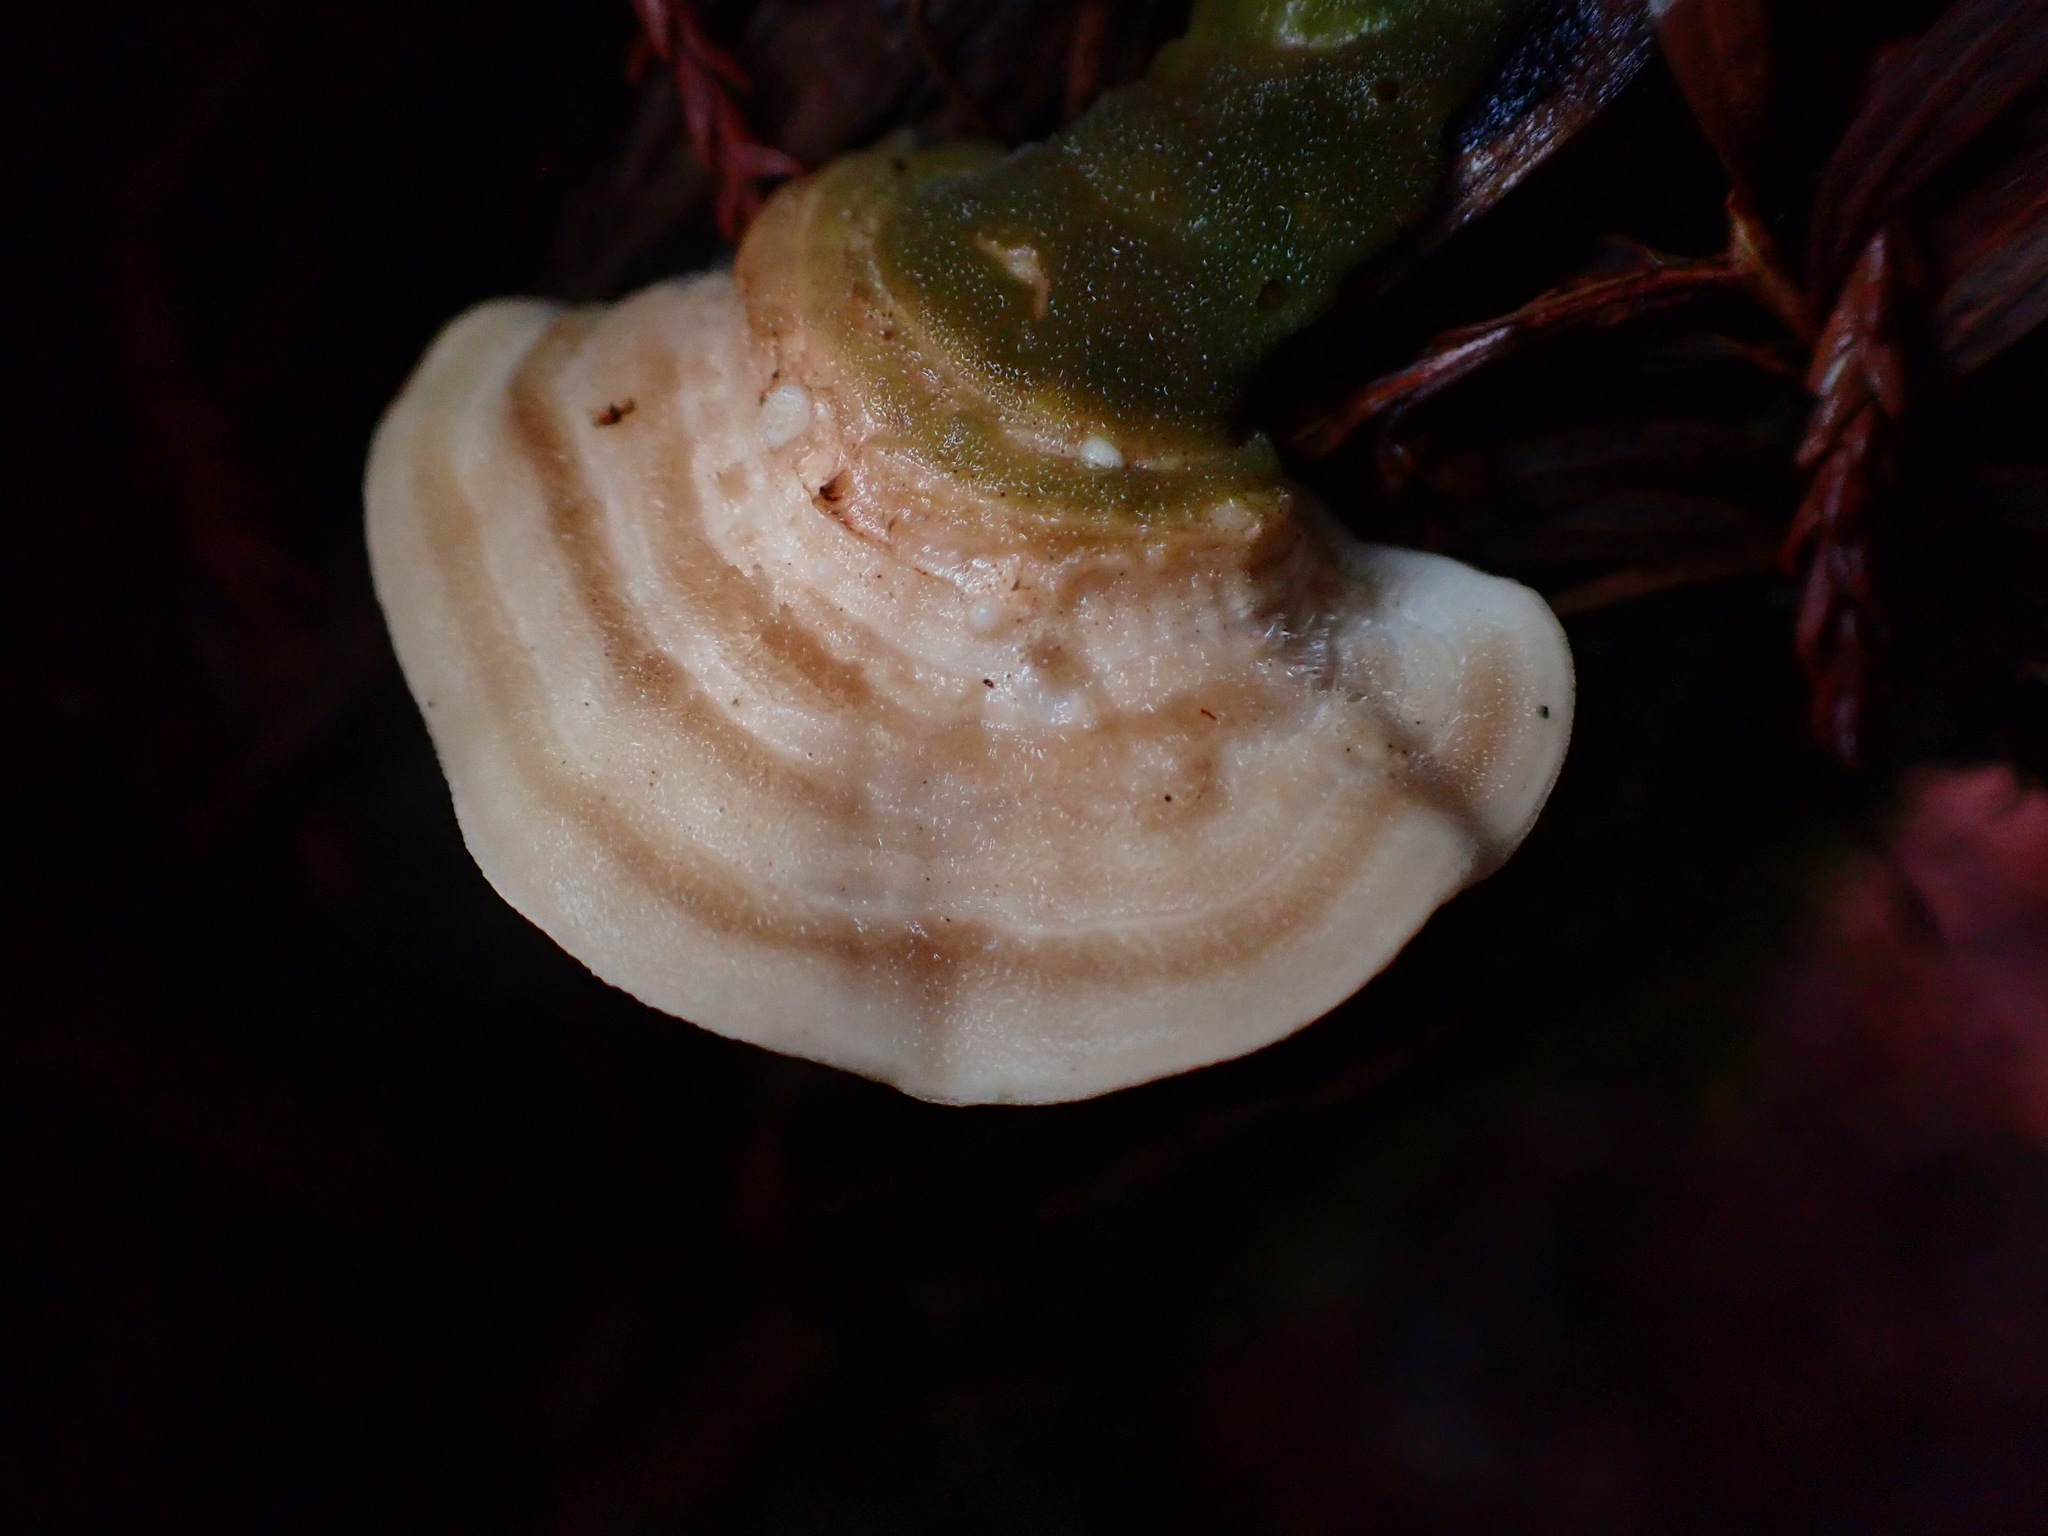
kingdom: Fungi
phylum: Basidiomycota
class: Agaricomycetes
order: Polyporales
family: Polyporaceae
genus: Lenzites
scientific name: Lenzites betulinus
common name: Birch mazegill
